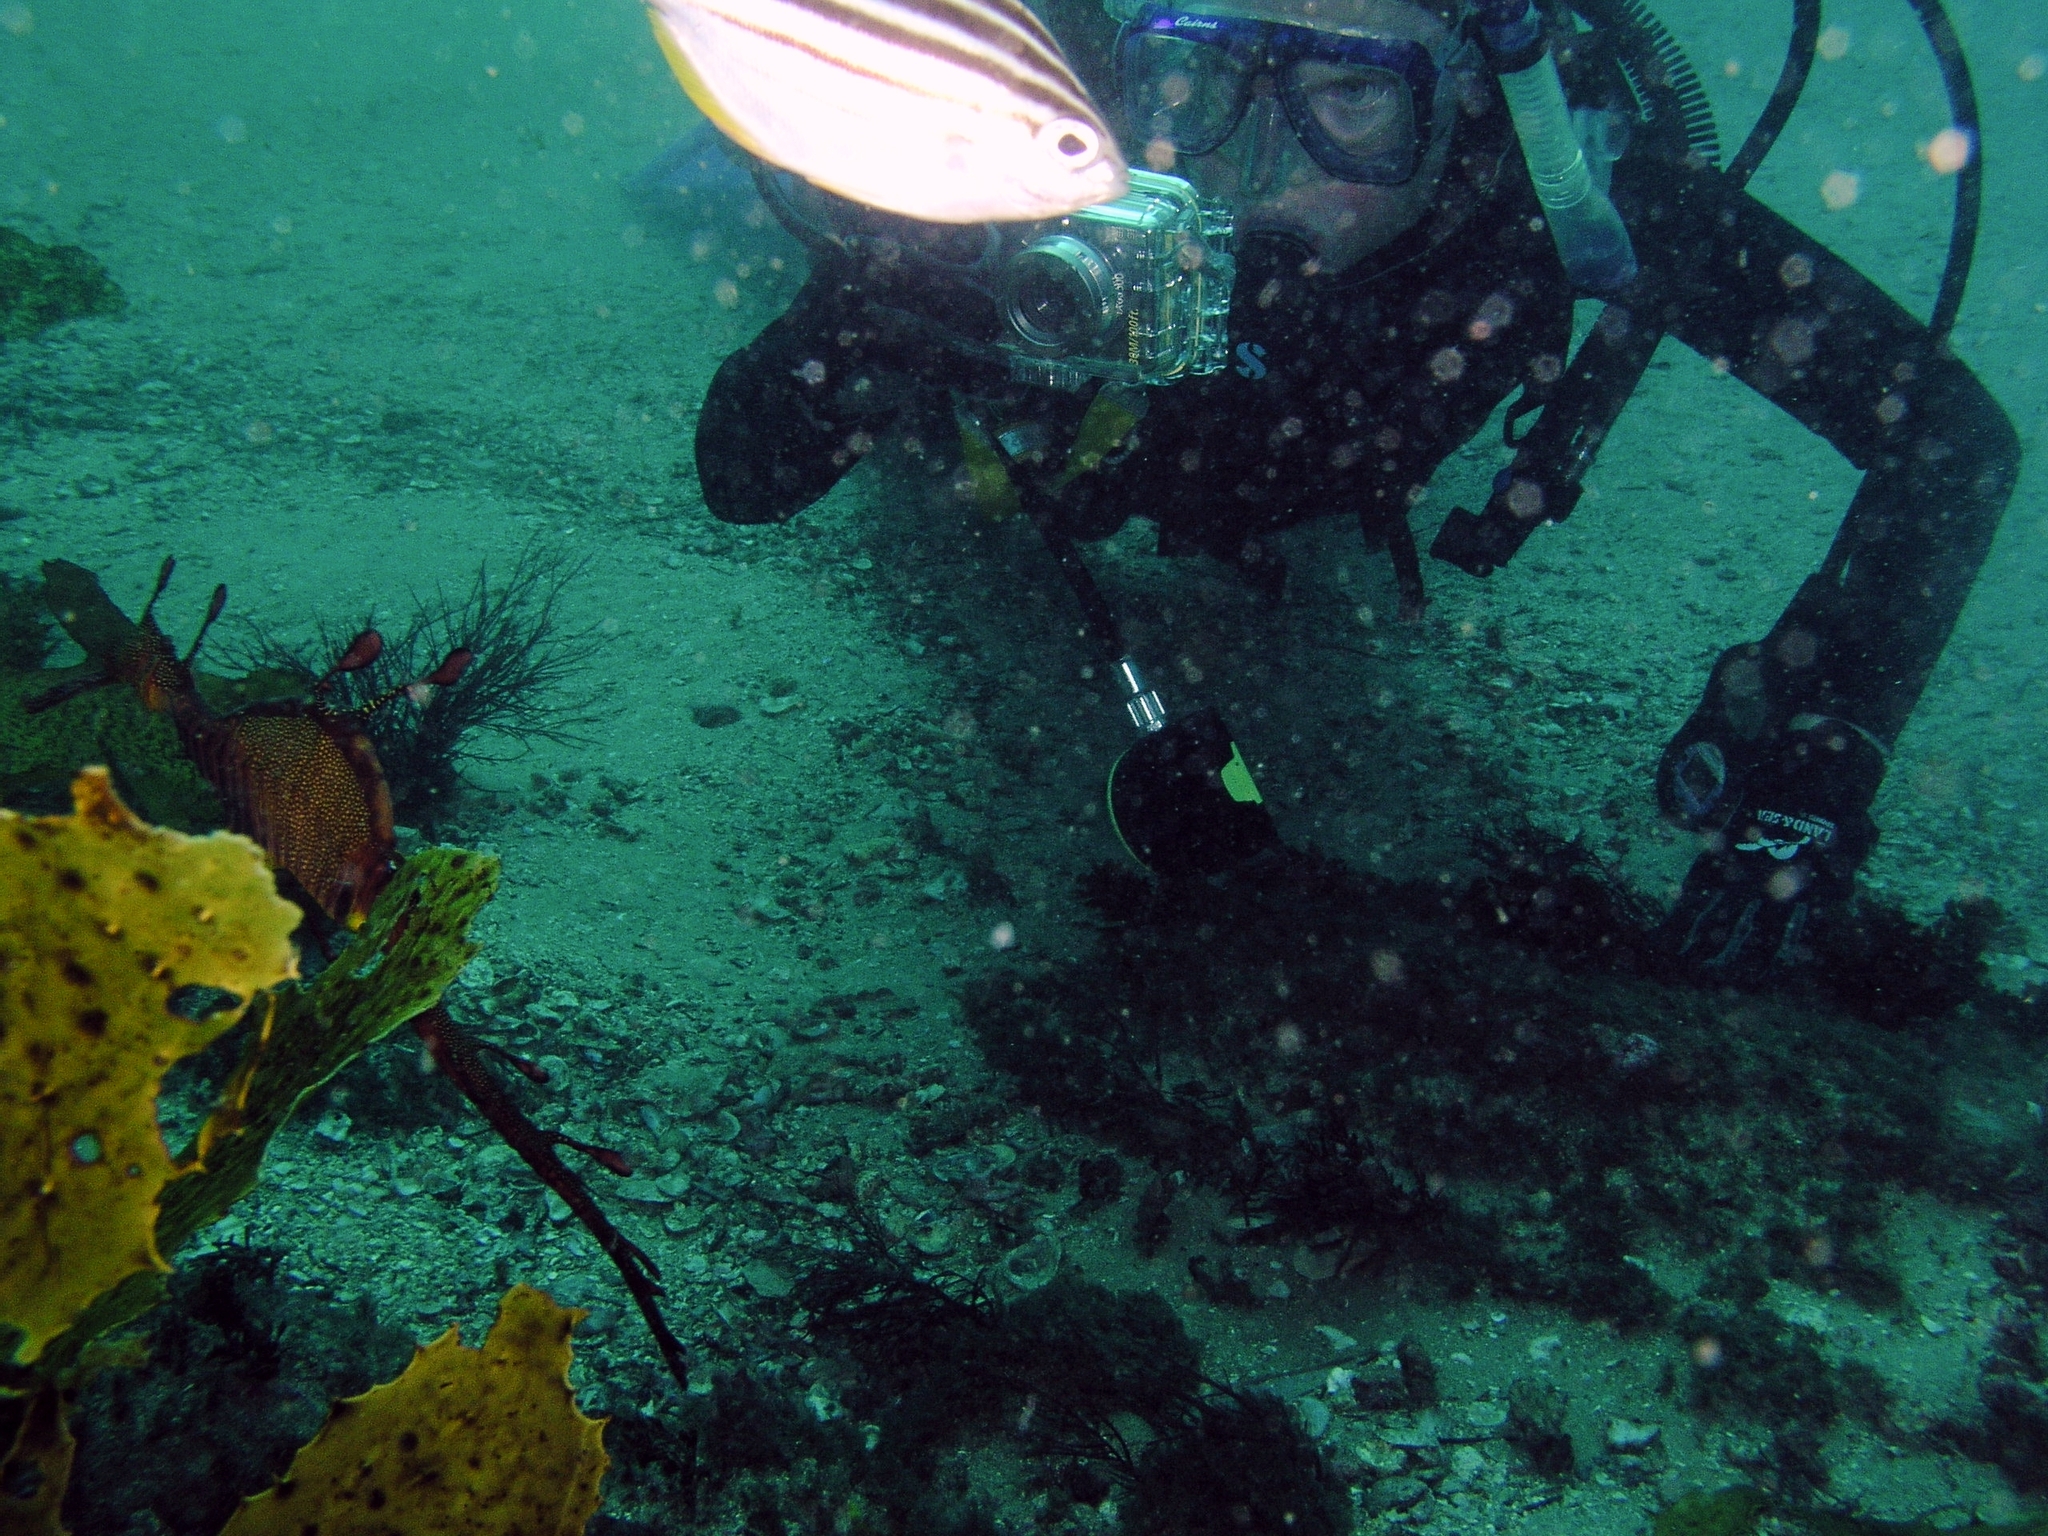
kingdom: Animalia
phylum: Chordata
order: Syngnathiformes
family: Syngnathidae
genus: Phyllopteryx
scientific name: Phyllopteryx taeniolatus
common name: Common seadragon
